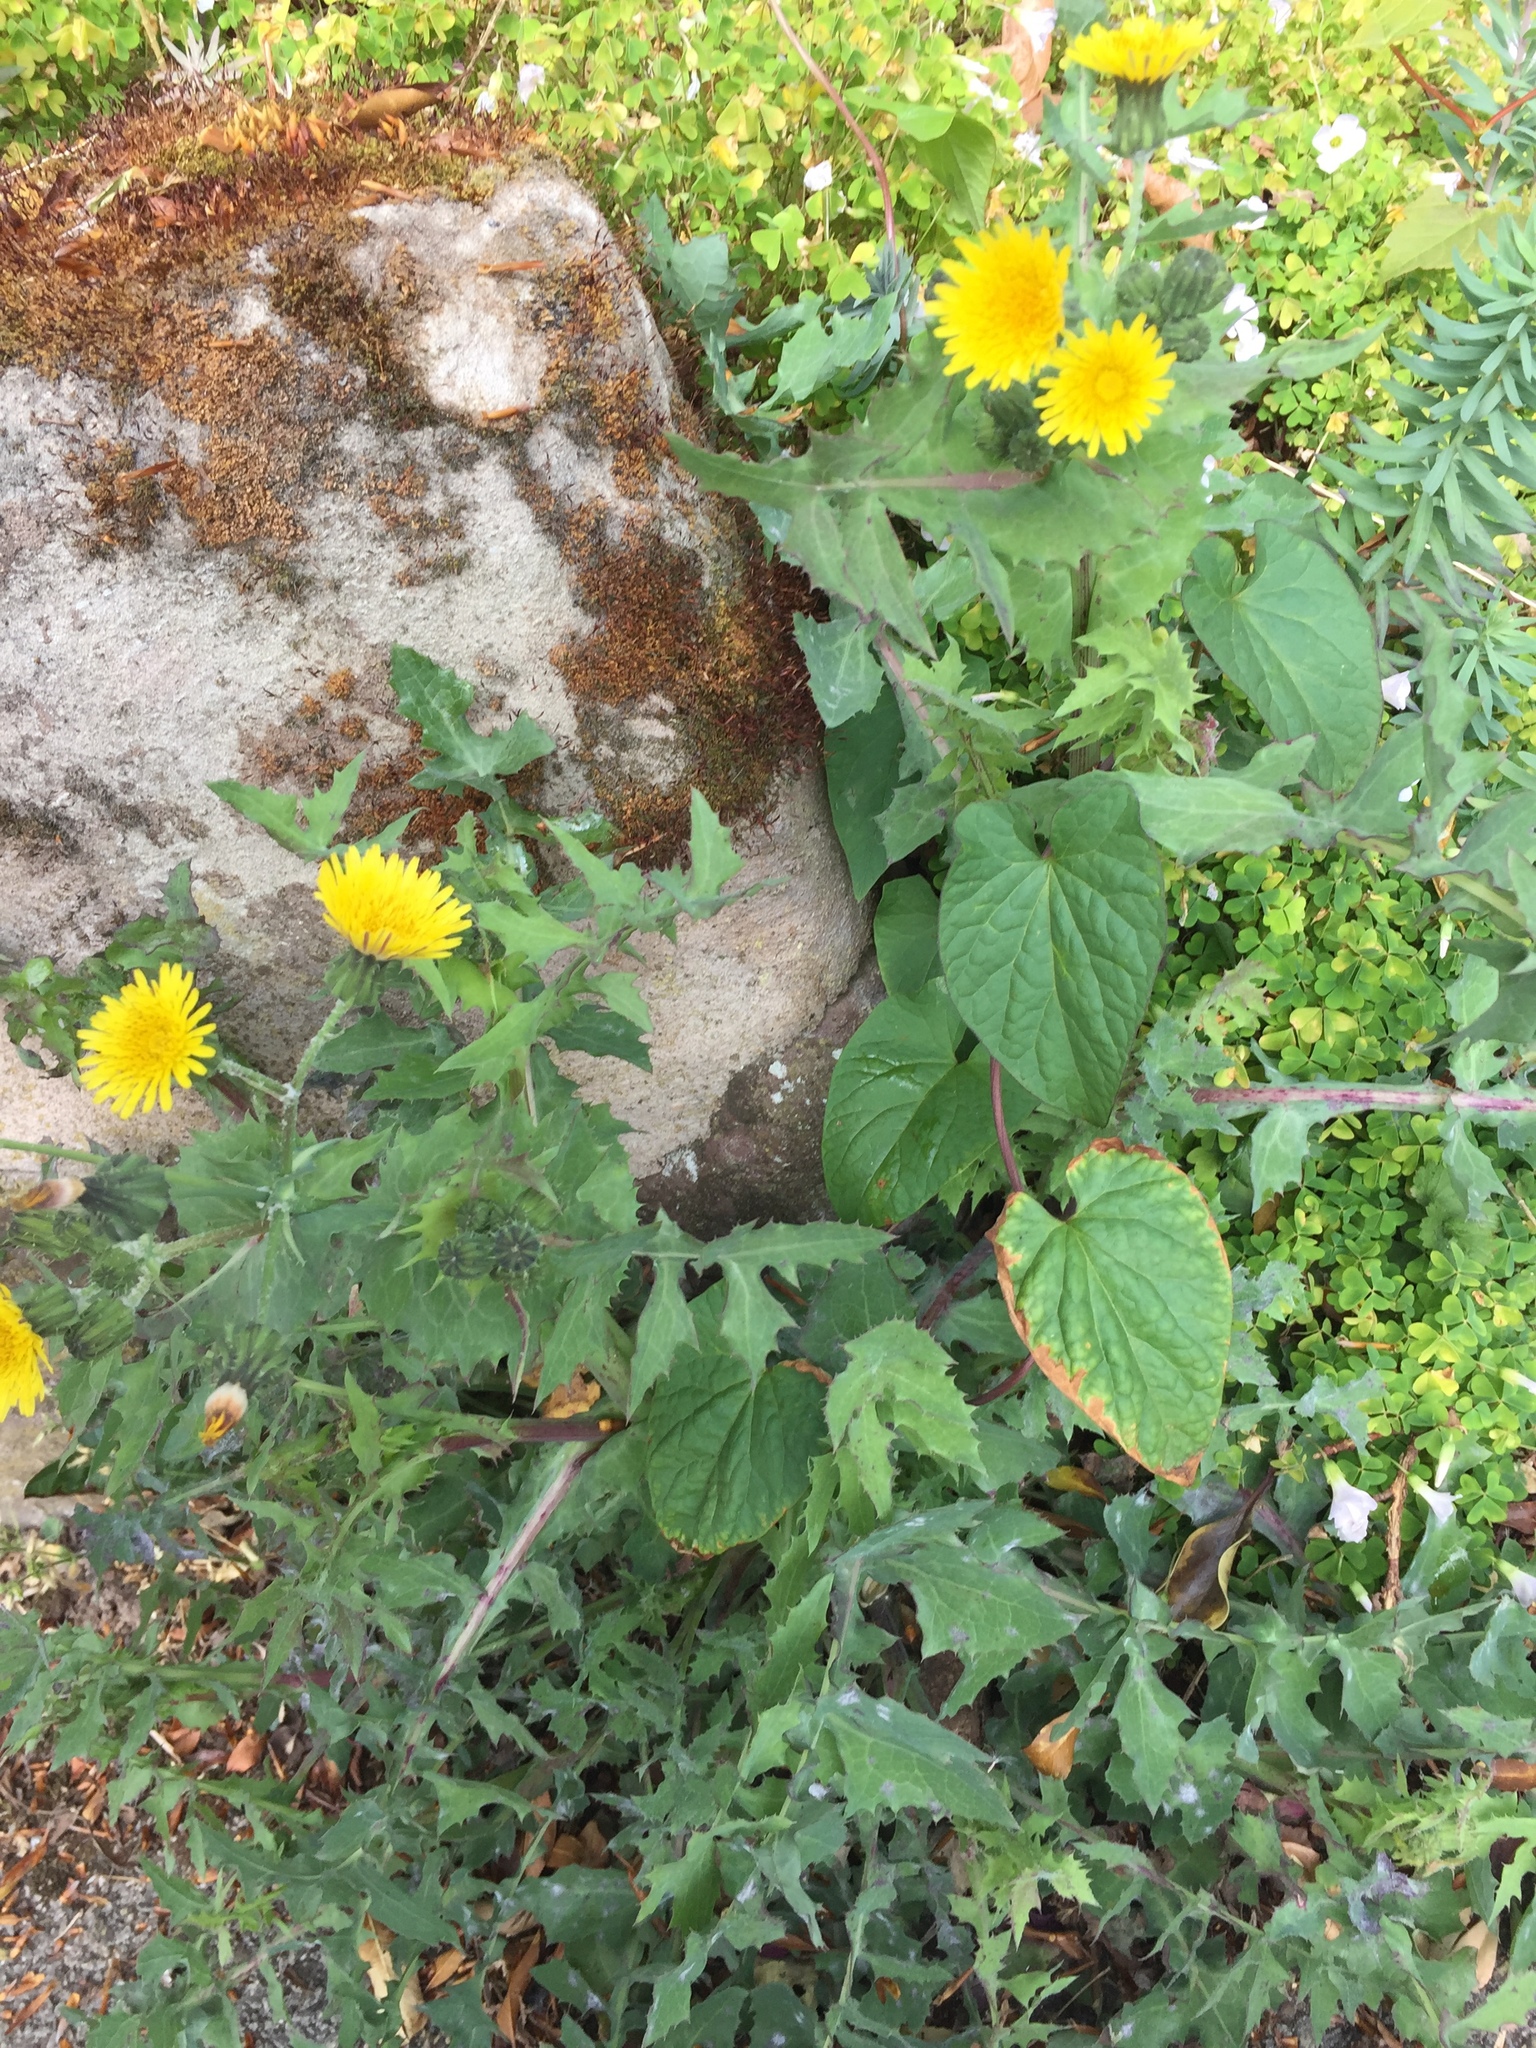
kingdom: Plantae
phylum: Tracheophyta
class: Magnoliopsida
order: Asterales
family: Asteraceae
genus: Sonchus
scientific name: Sonchus oleraceus
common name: Common sowthistle
